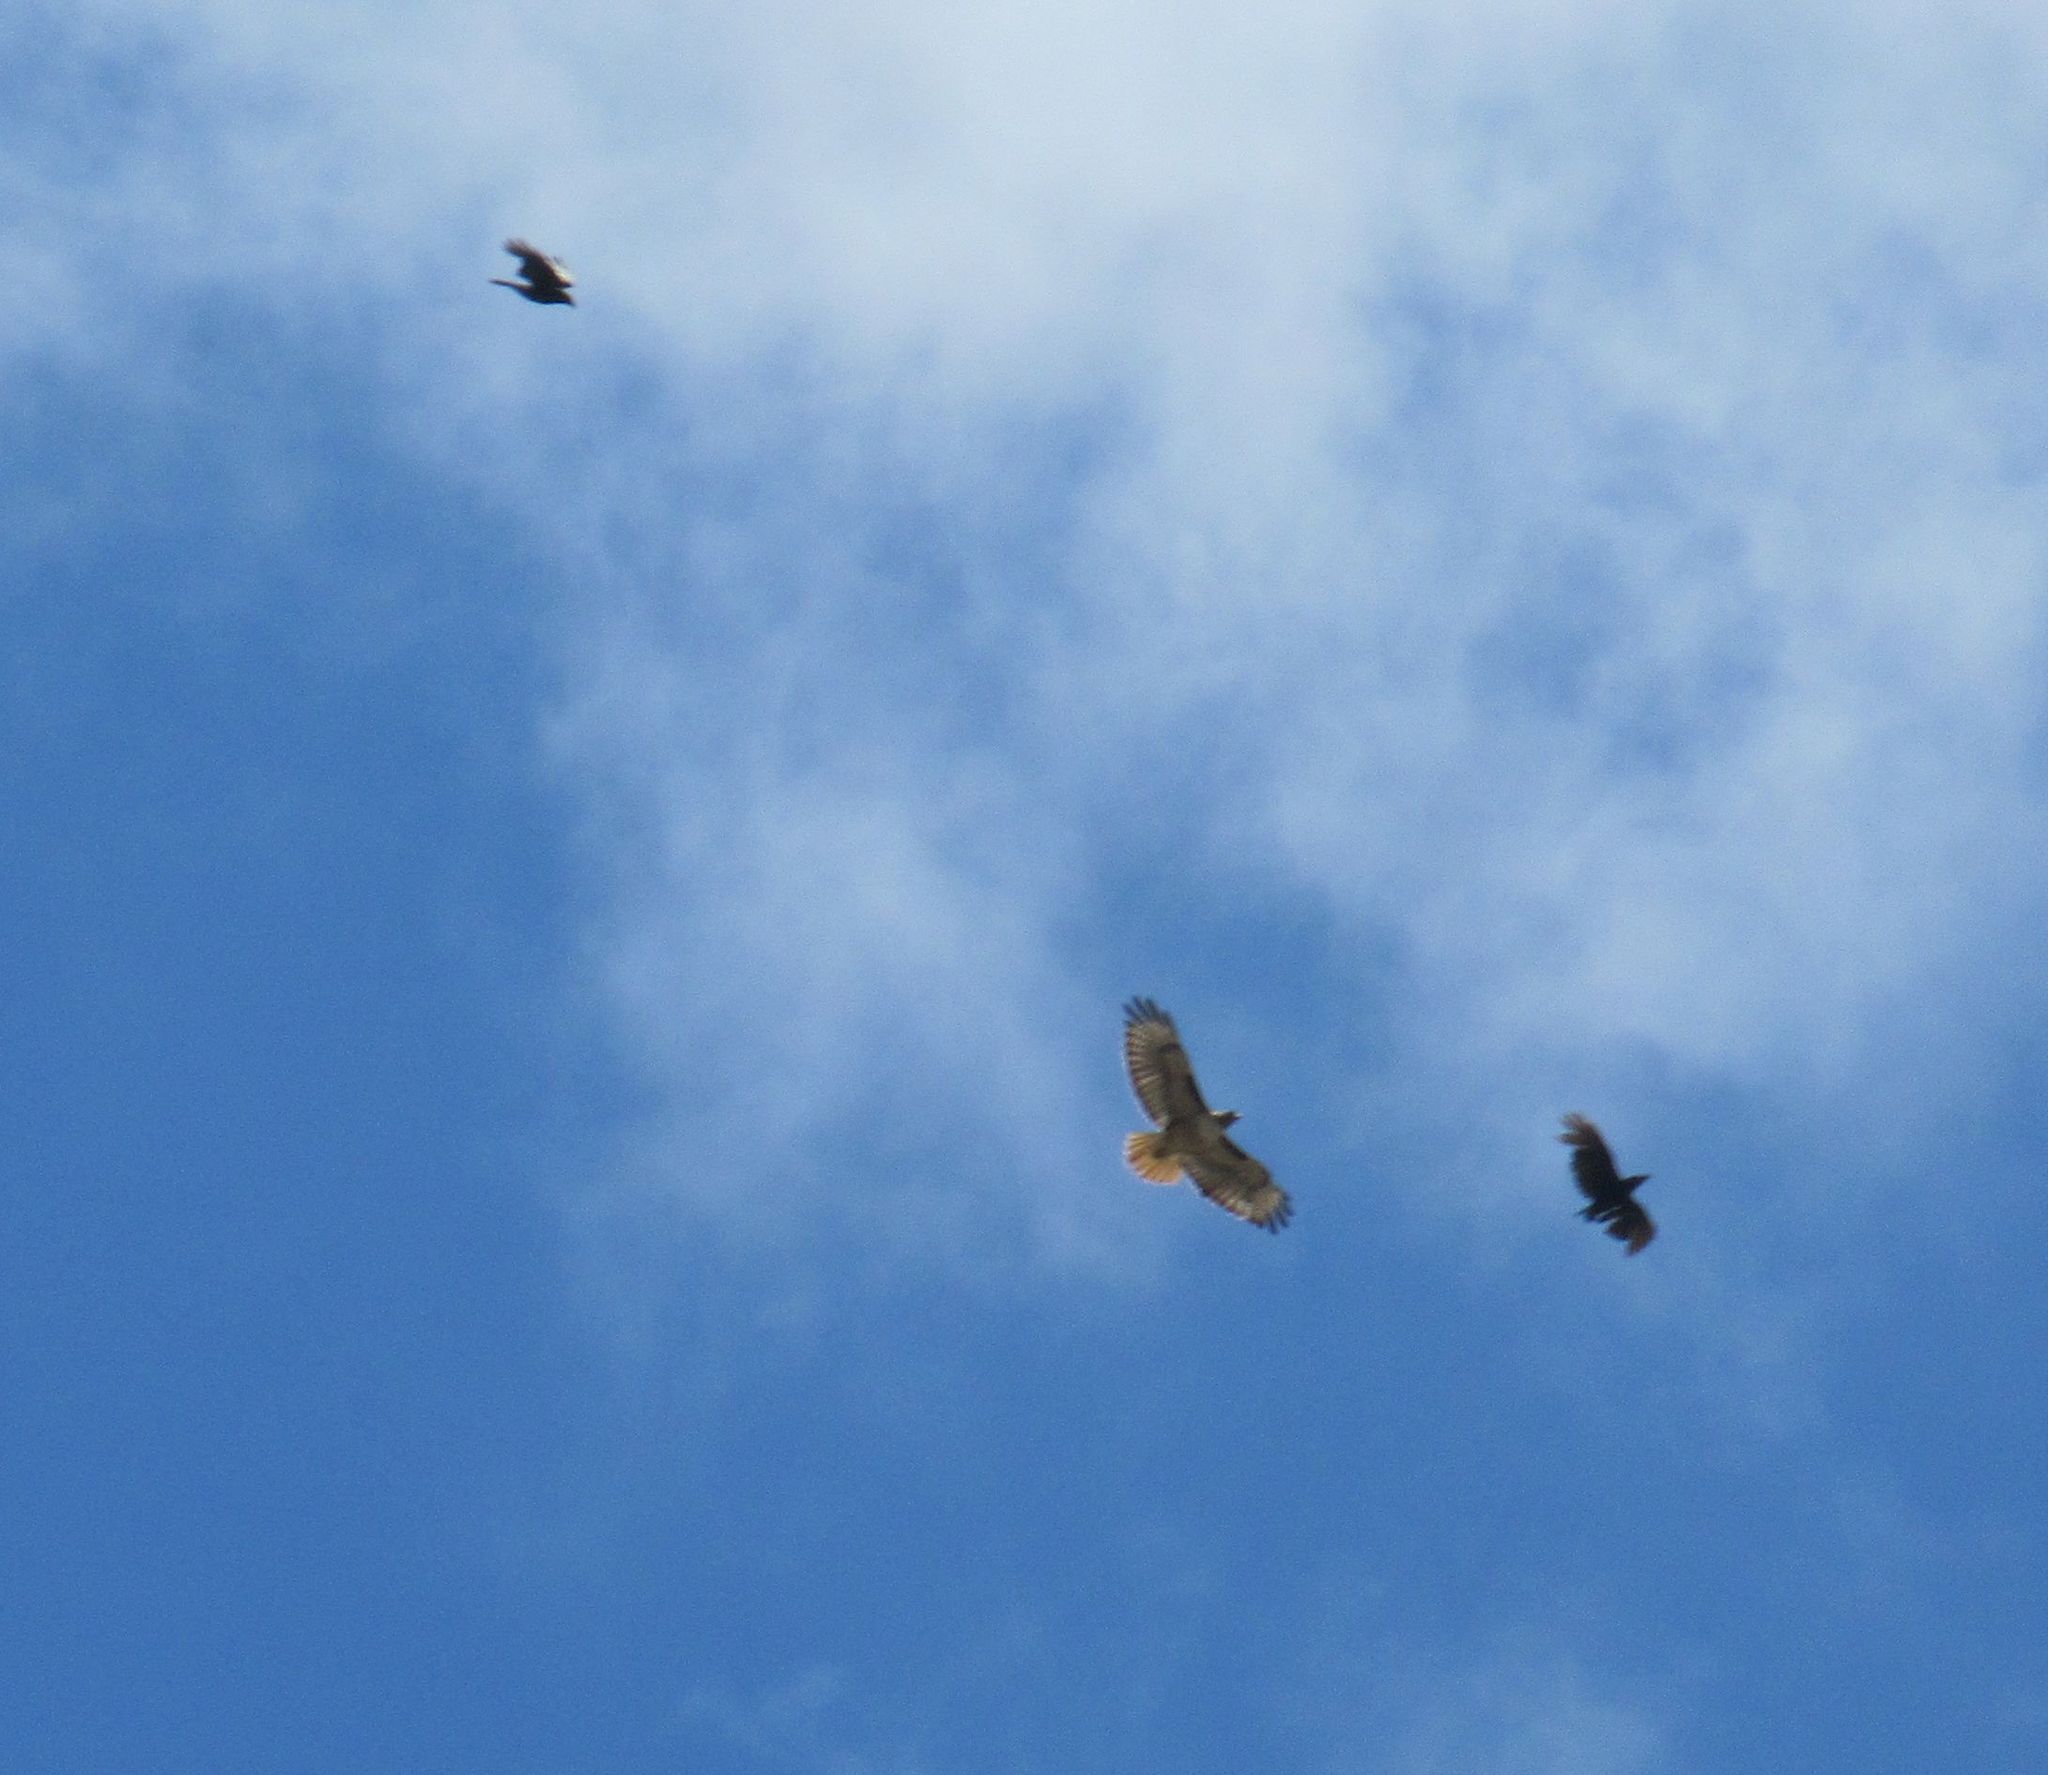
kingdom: Animalia
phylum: Chordata
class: Aves
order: Accipitriformes
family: Accipitridae
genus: Buteo
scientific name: Buteo jamaicensis
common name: Red-tailed hawk
